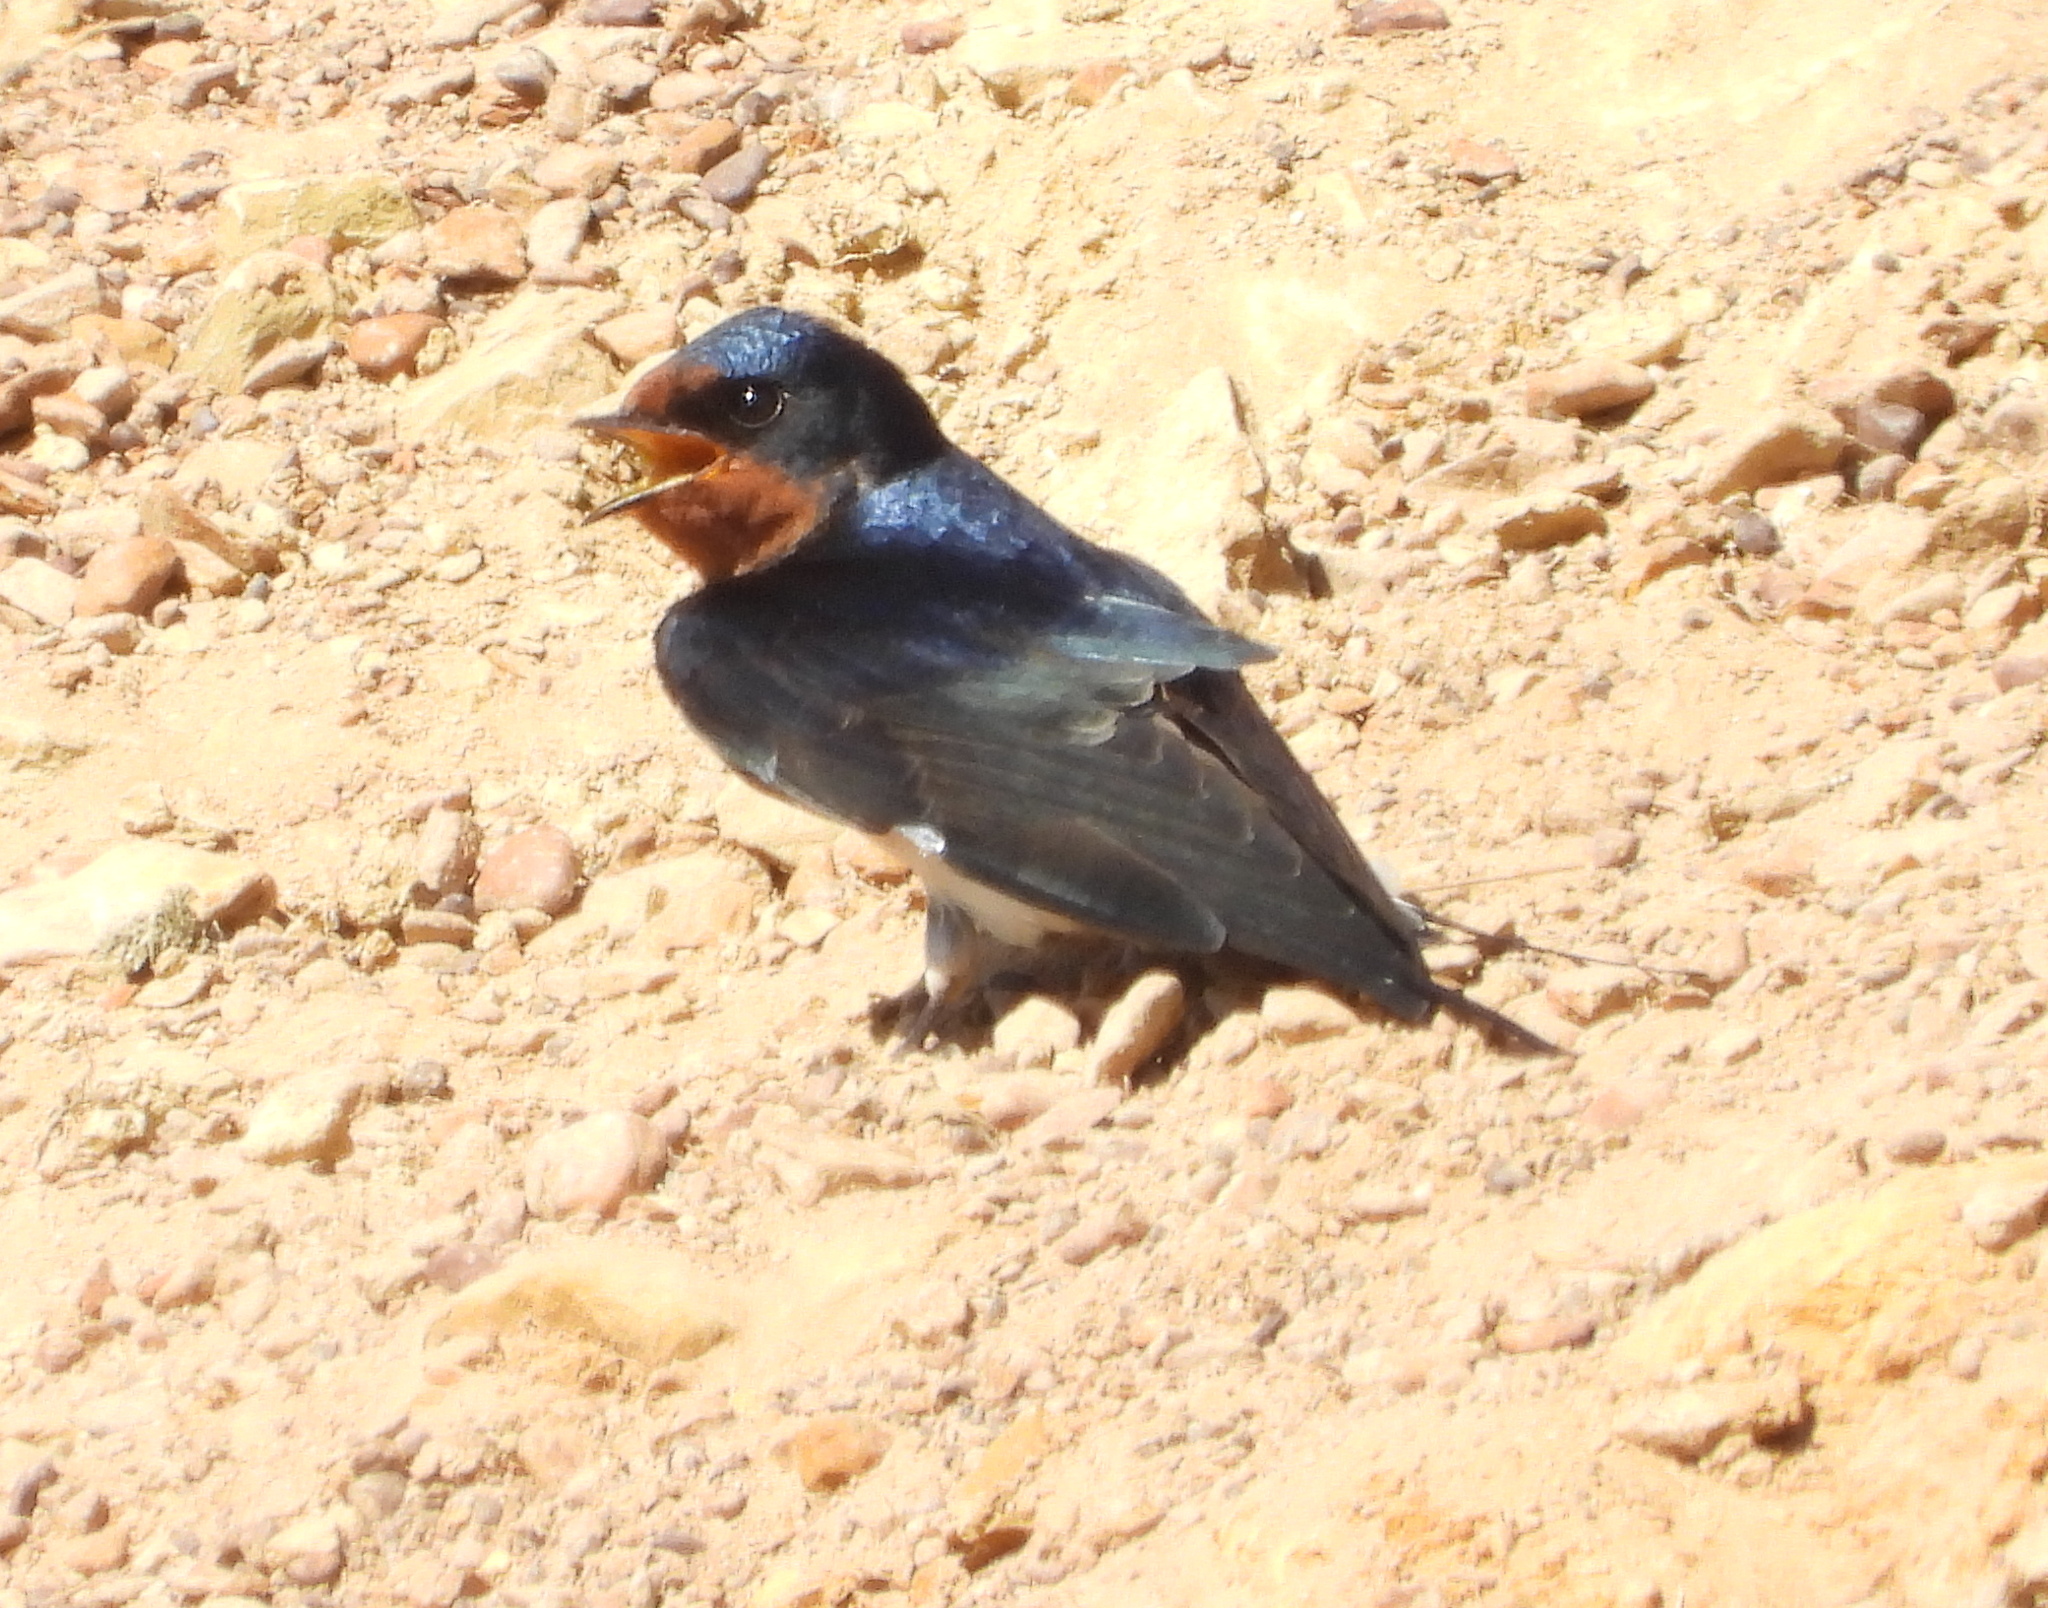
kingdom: Animalia
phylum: Chordata
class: Aves
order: Passeriformes
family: Hirundinidae
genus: Hirundo
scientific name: Hirundo rustica
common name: Barn swallow
